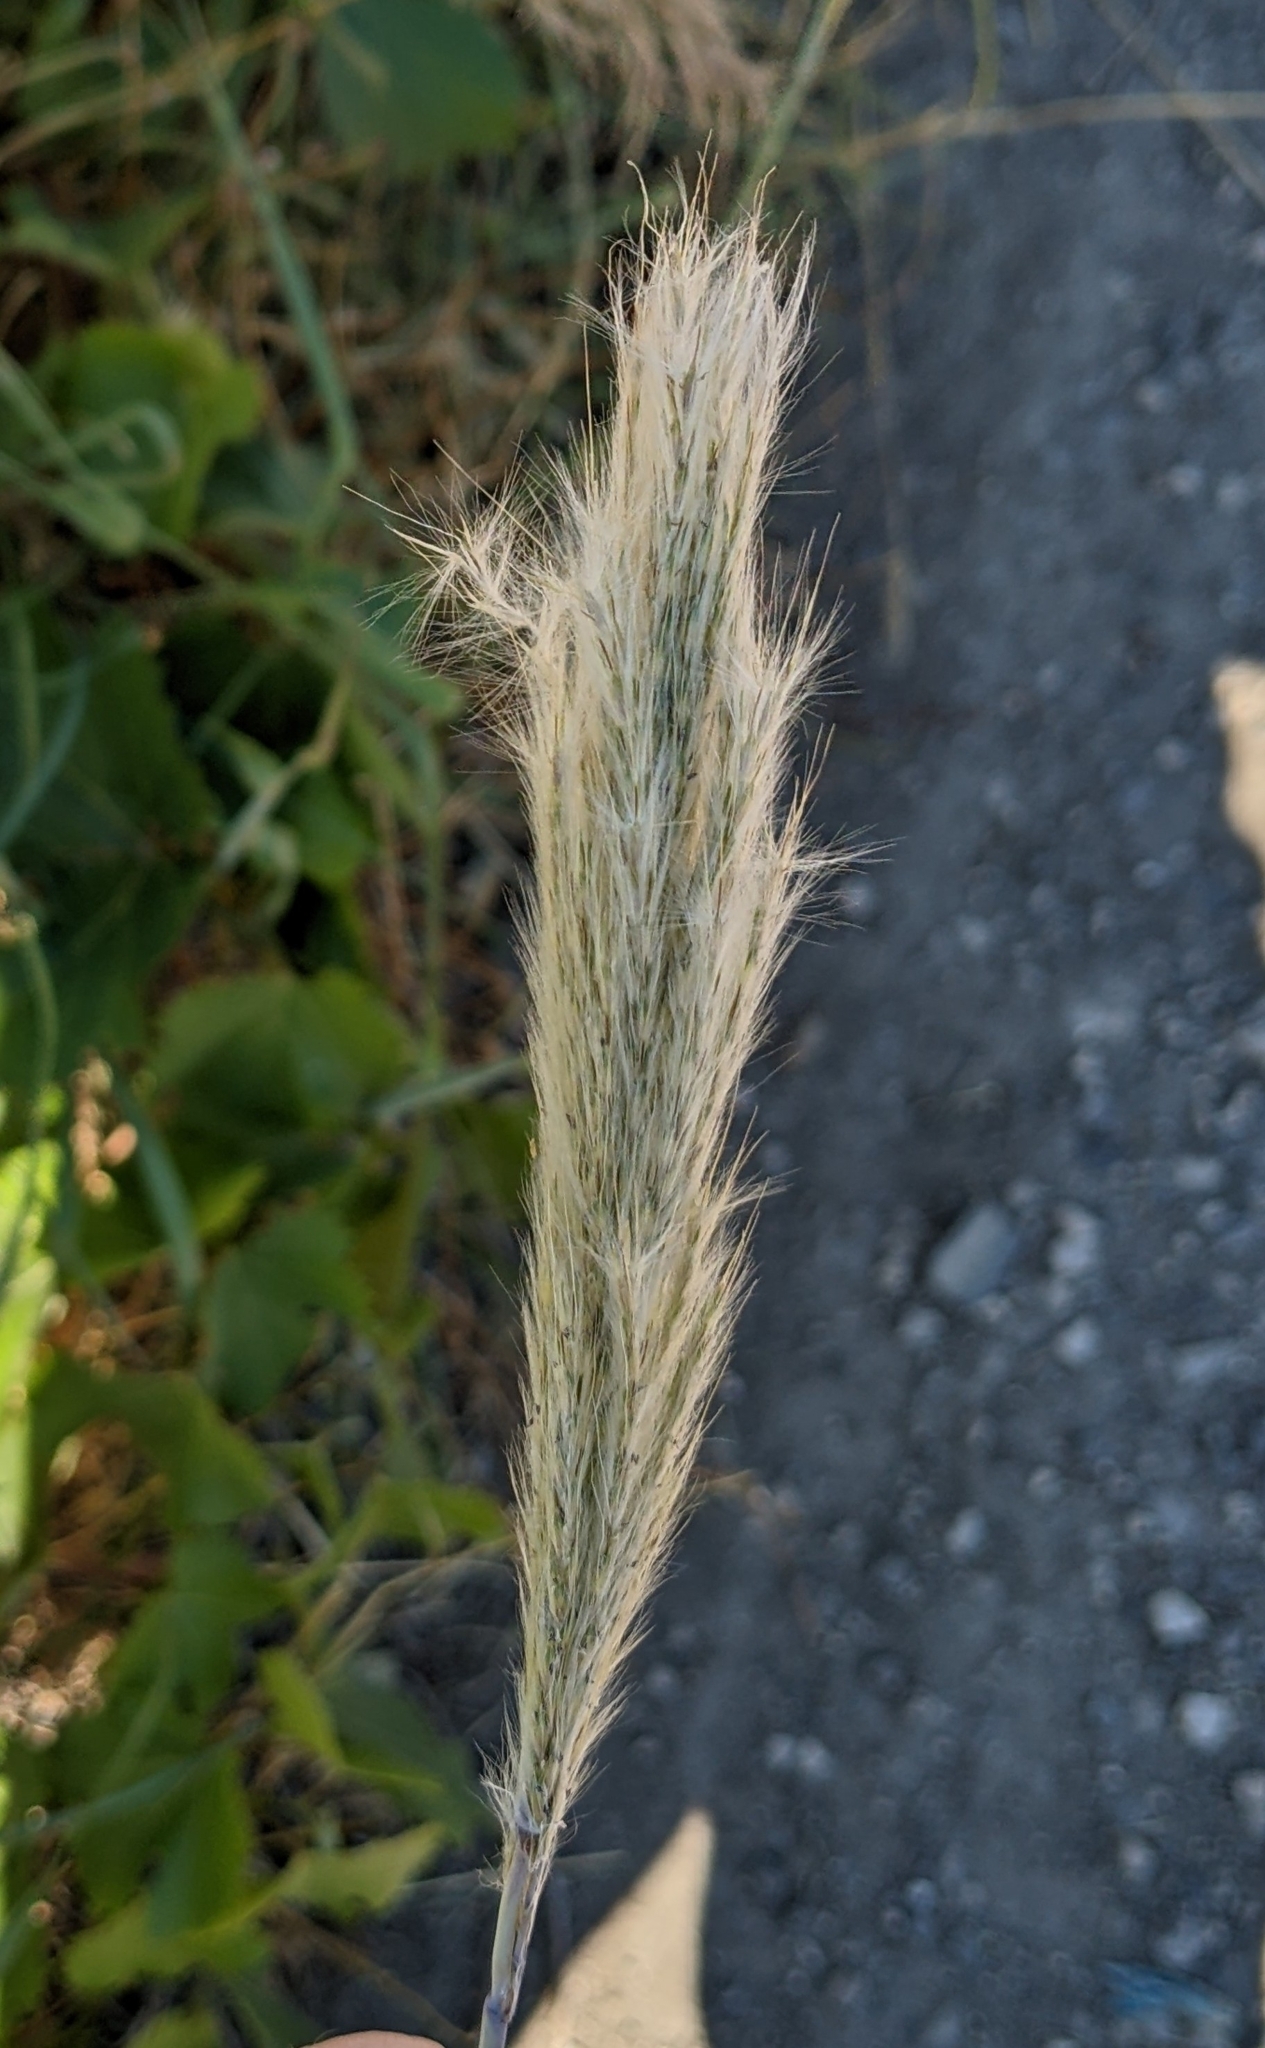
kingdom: Plantae
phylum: Tracheophyta
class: Liliopsida
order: Poales
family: Poaceae
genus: Bothriochloa
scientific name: Bothriochloa barbinodis
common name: Cane bluestem
